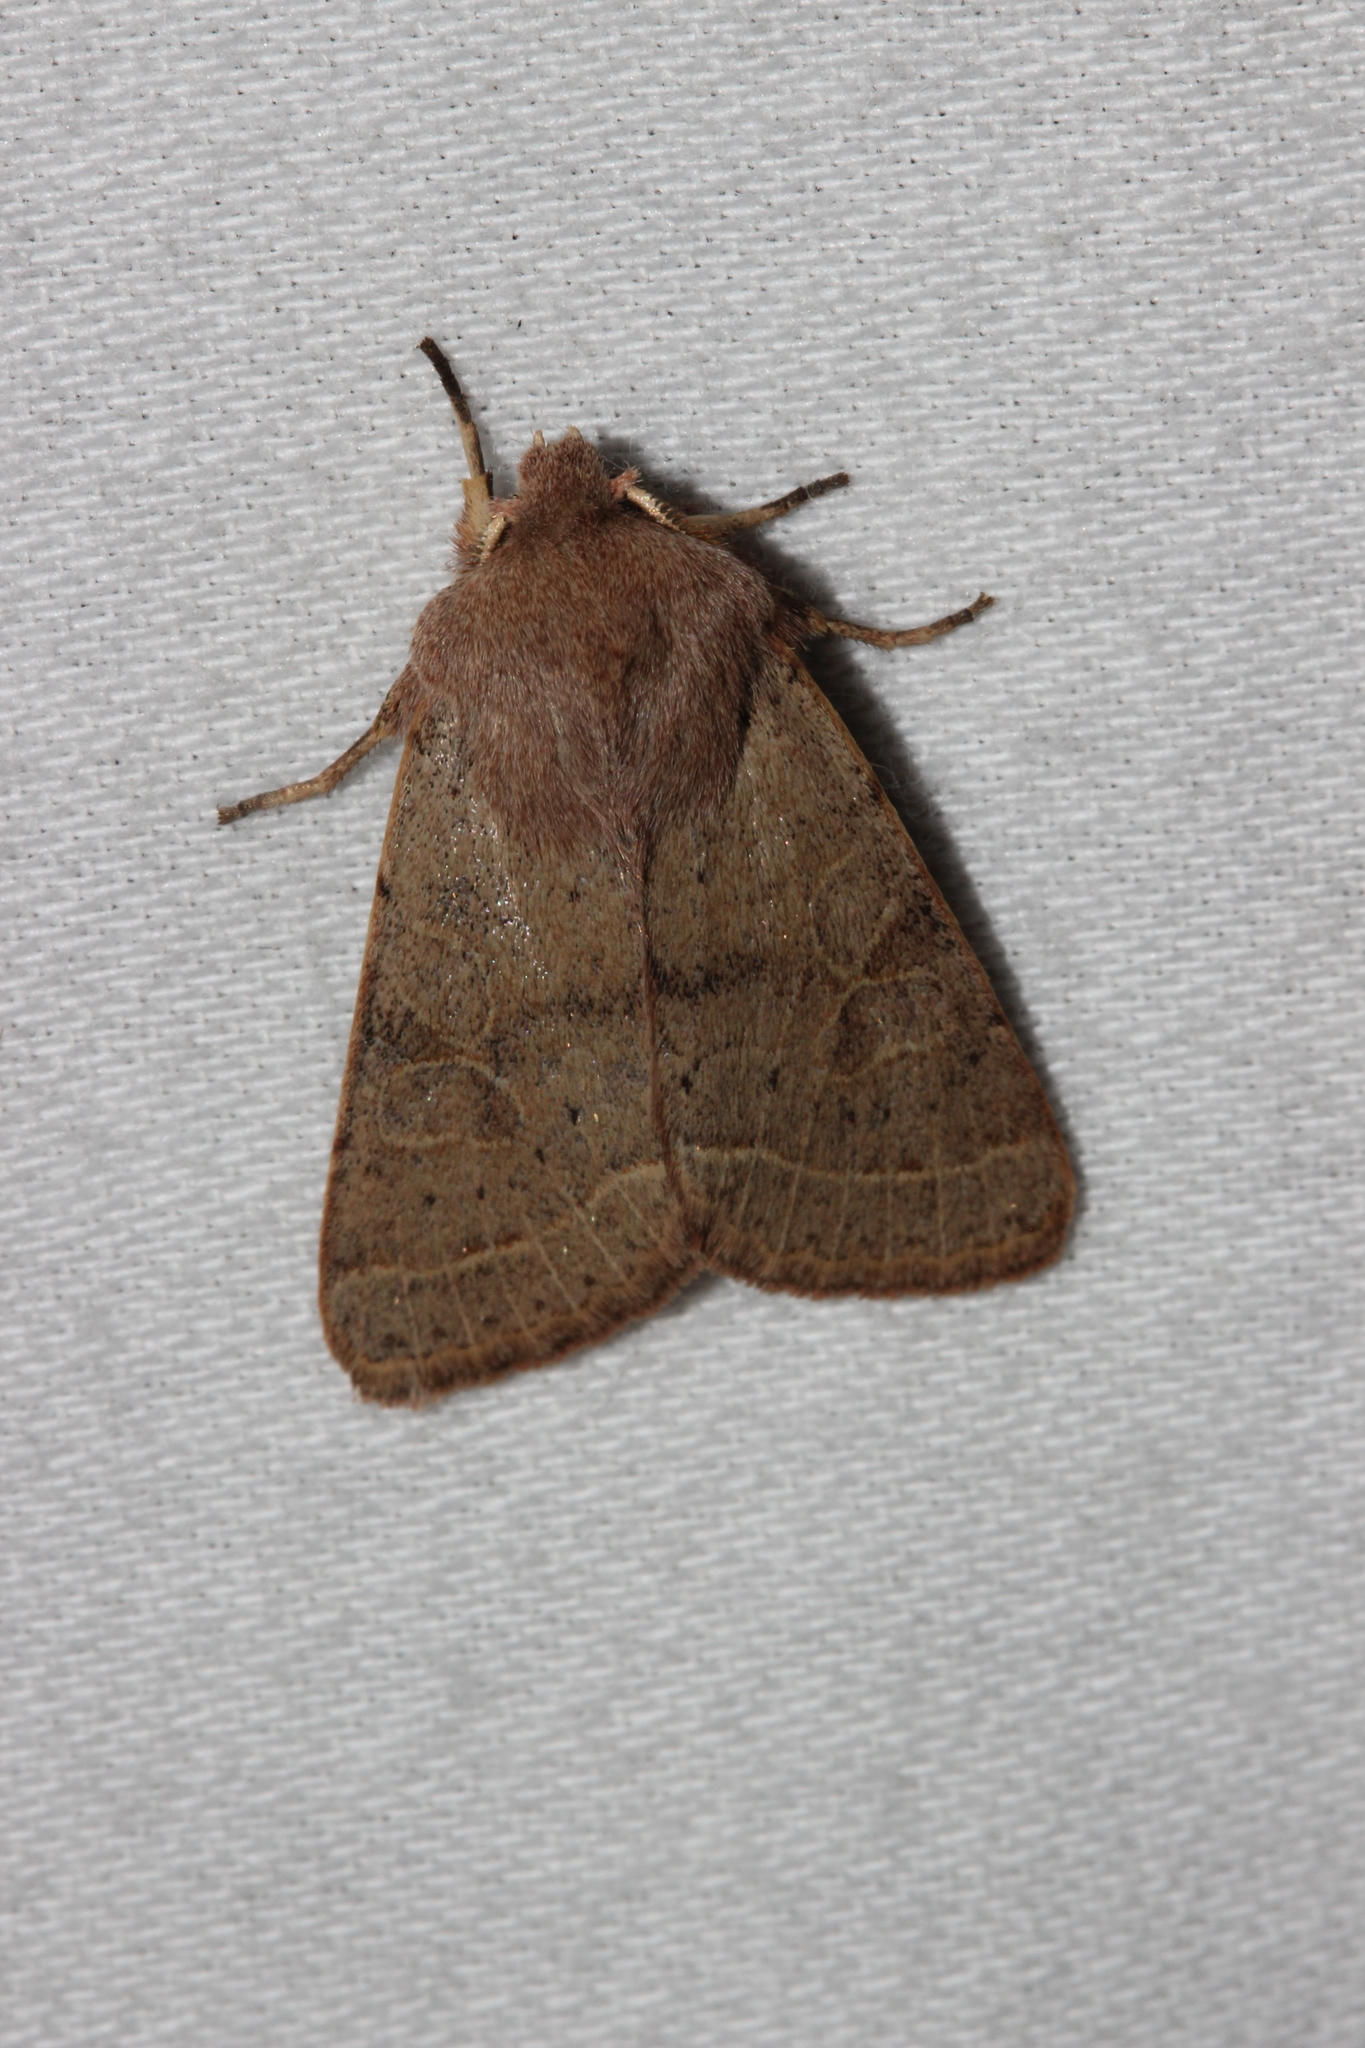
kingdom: Animalia
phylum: Arthropoda
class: Insecta
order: Lepidoptera
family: Noctuidae
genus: Orthosia
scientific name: Orthosia cerasi
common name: Common quaker
